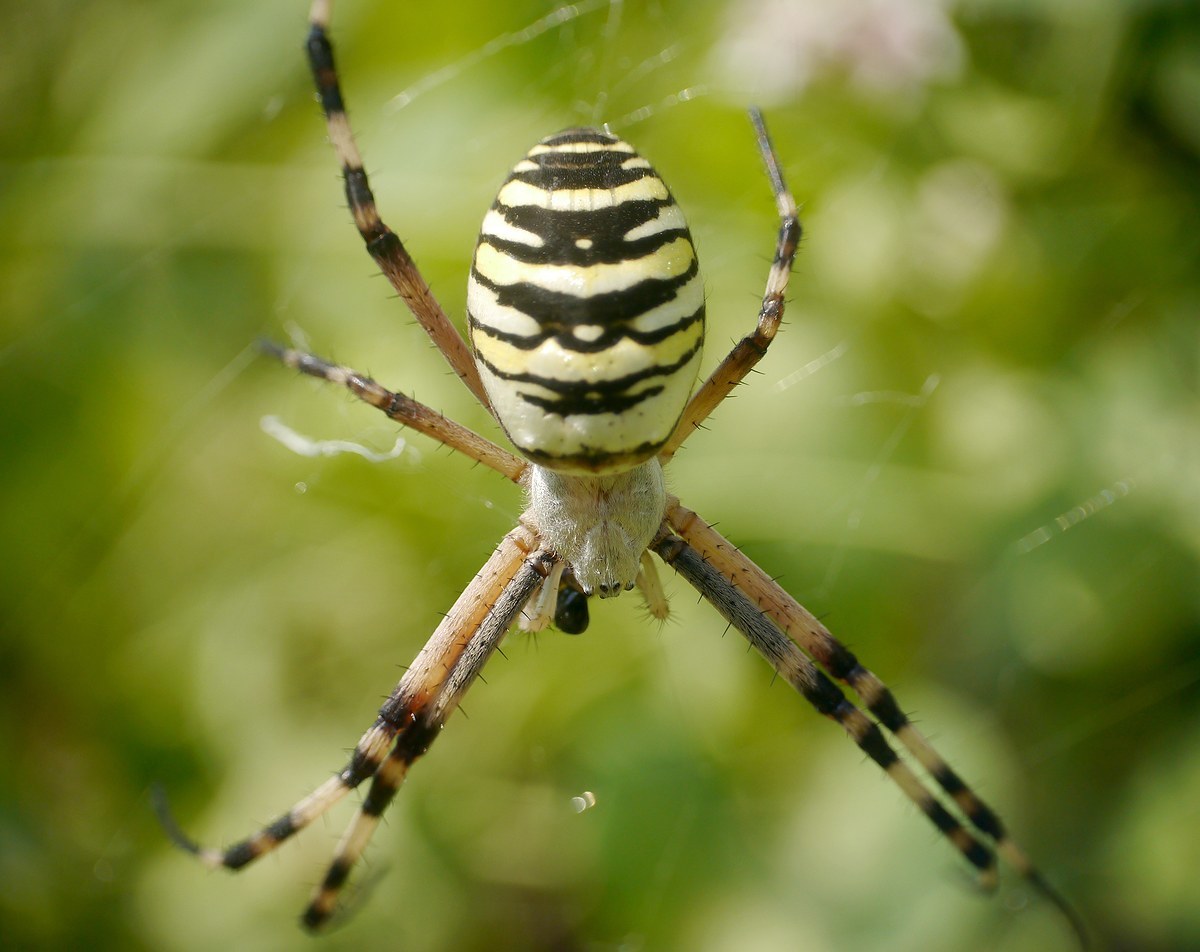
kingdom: Animalia
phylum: Arthropoda
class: Arachnida
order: Araneae
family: Araneidae
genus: Argiope
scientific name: Argiope bruennichi
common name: Wasp spider
